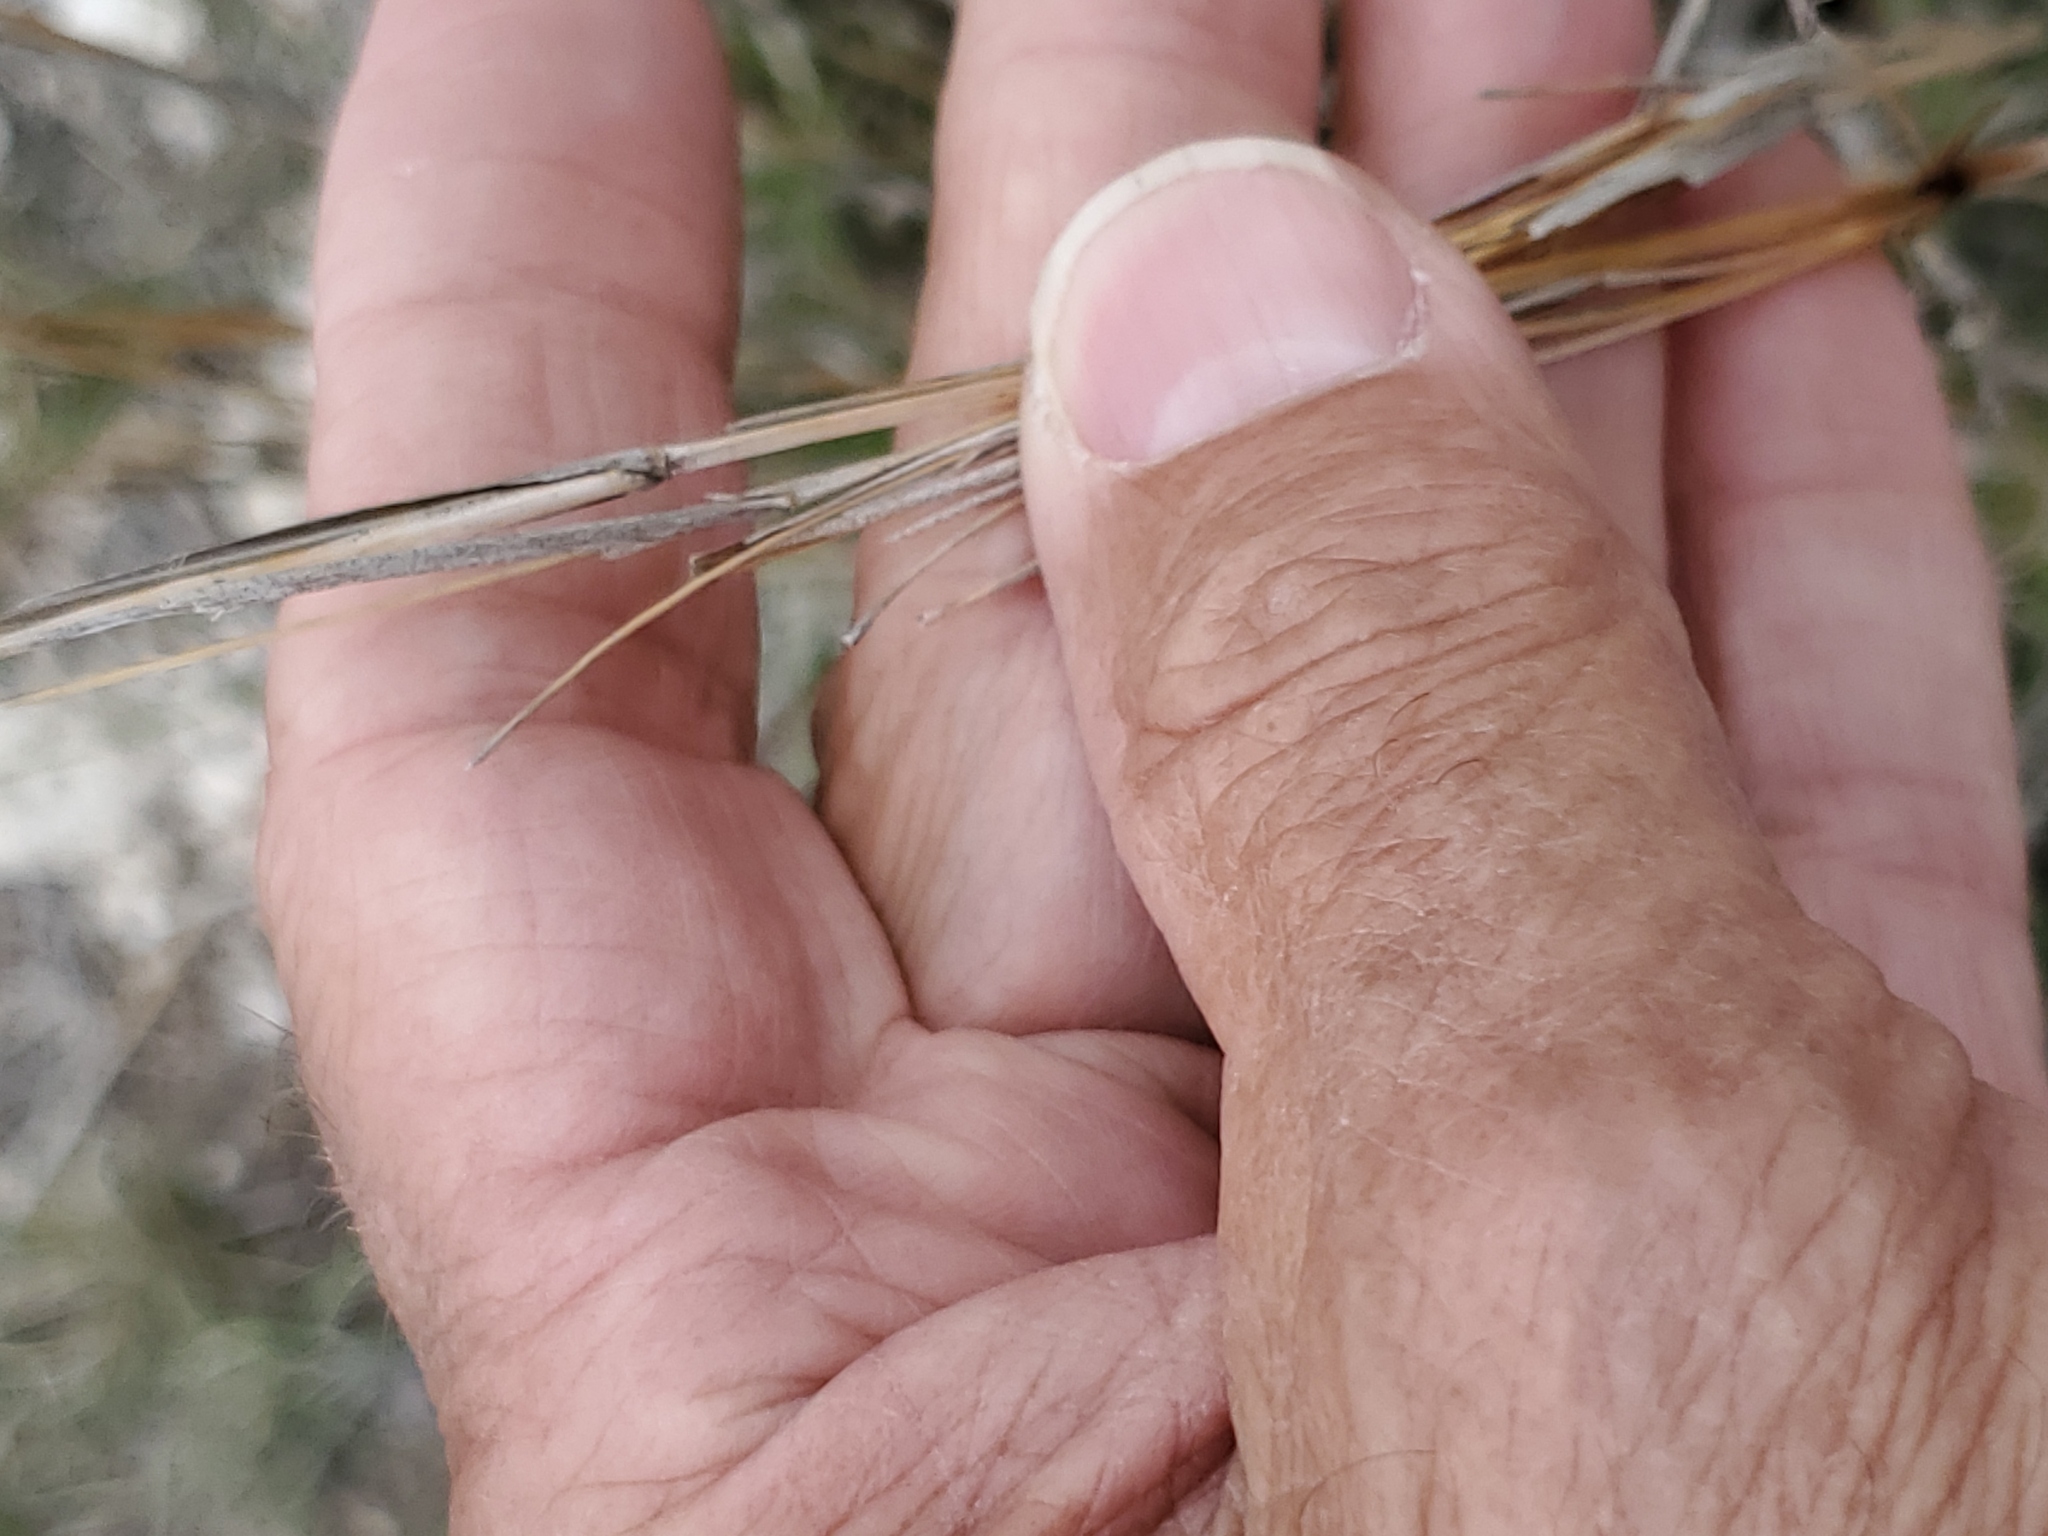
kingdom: Plantae
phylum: Tracheophyta
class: Liliopsida
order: Poales
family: Poaceae
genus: Schizachyrium
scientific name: Schizachyrium scoparium
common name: Little bluestem
